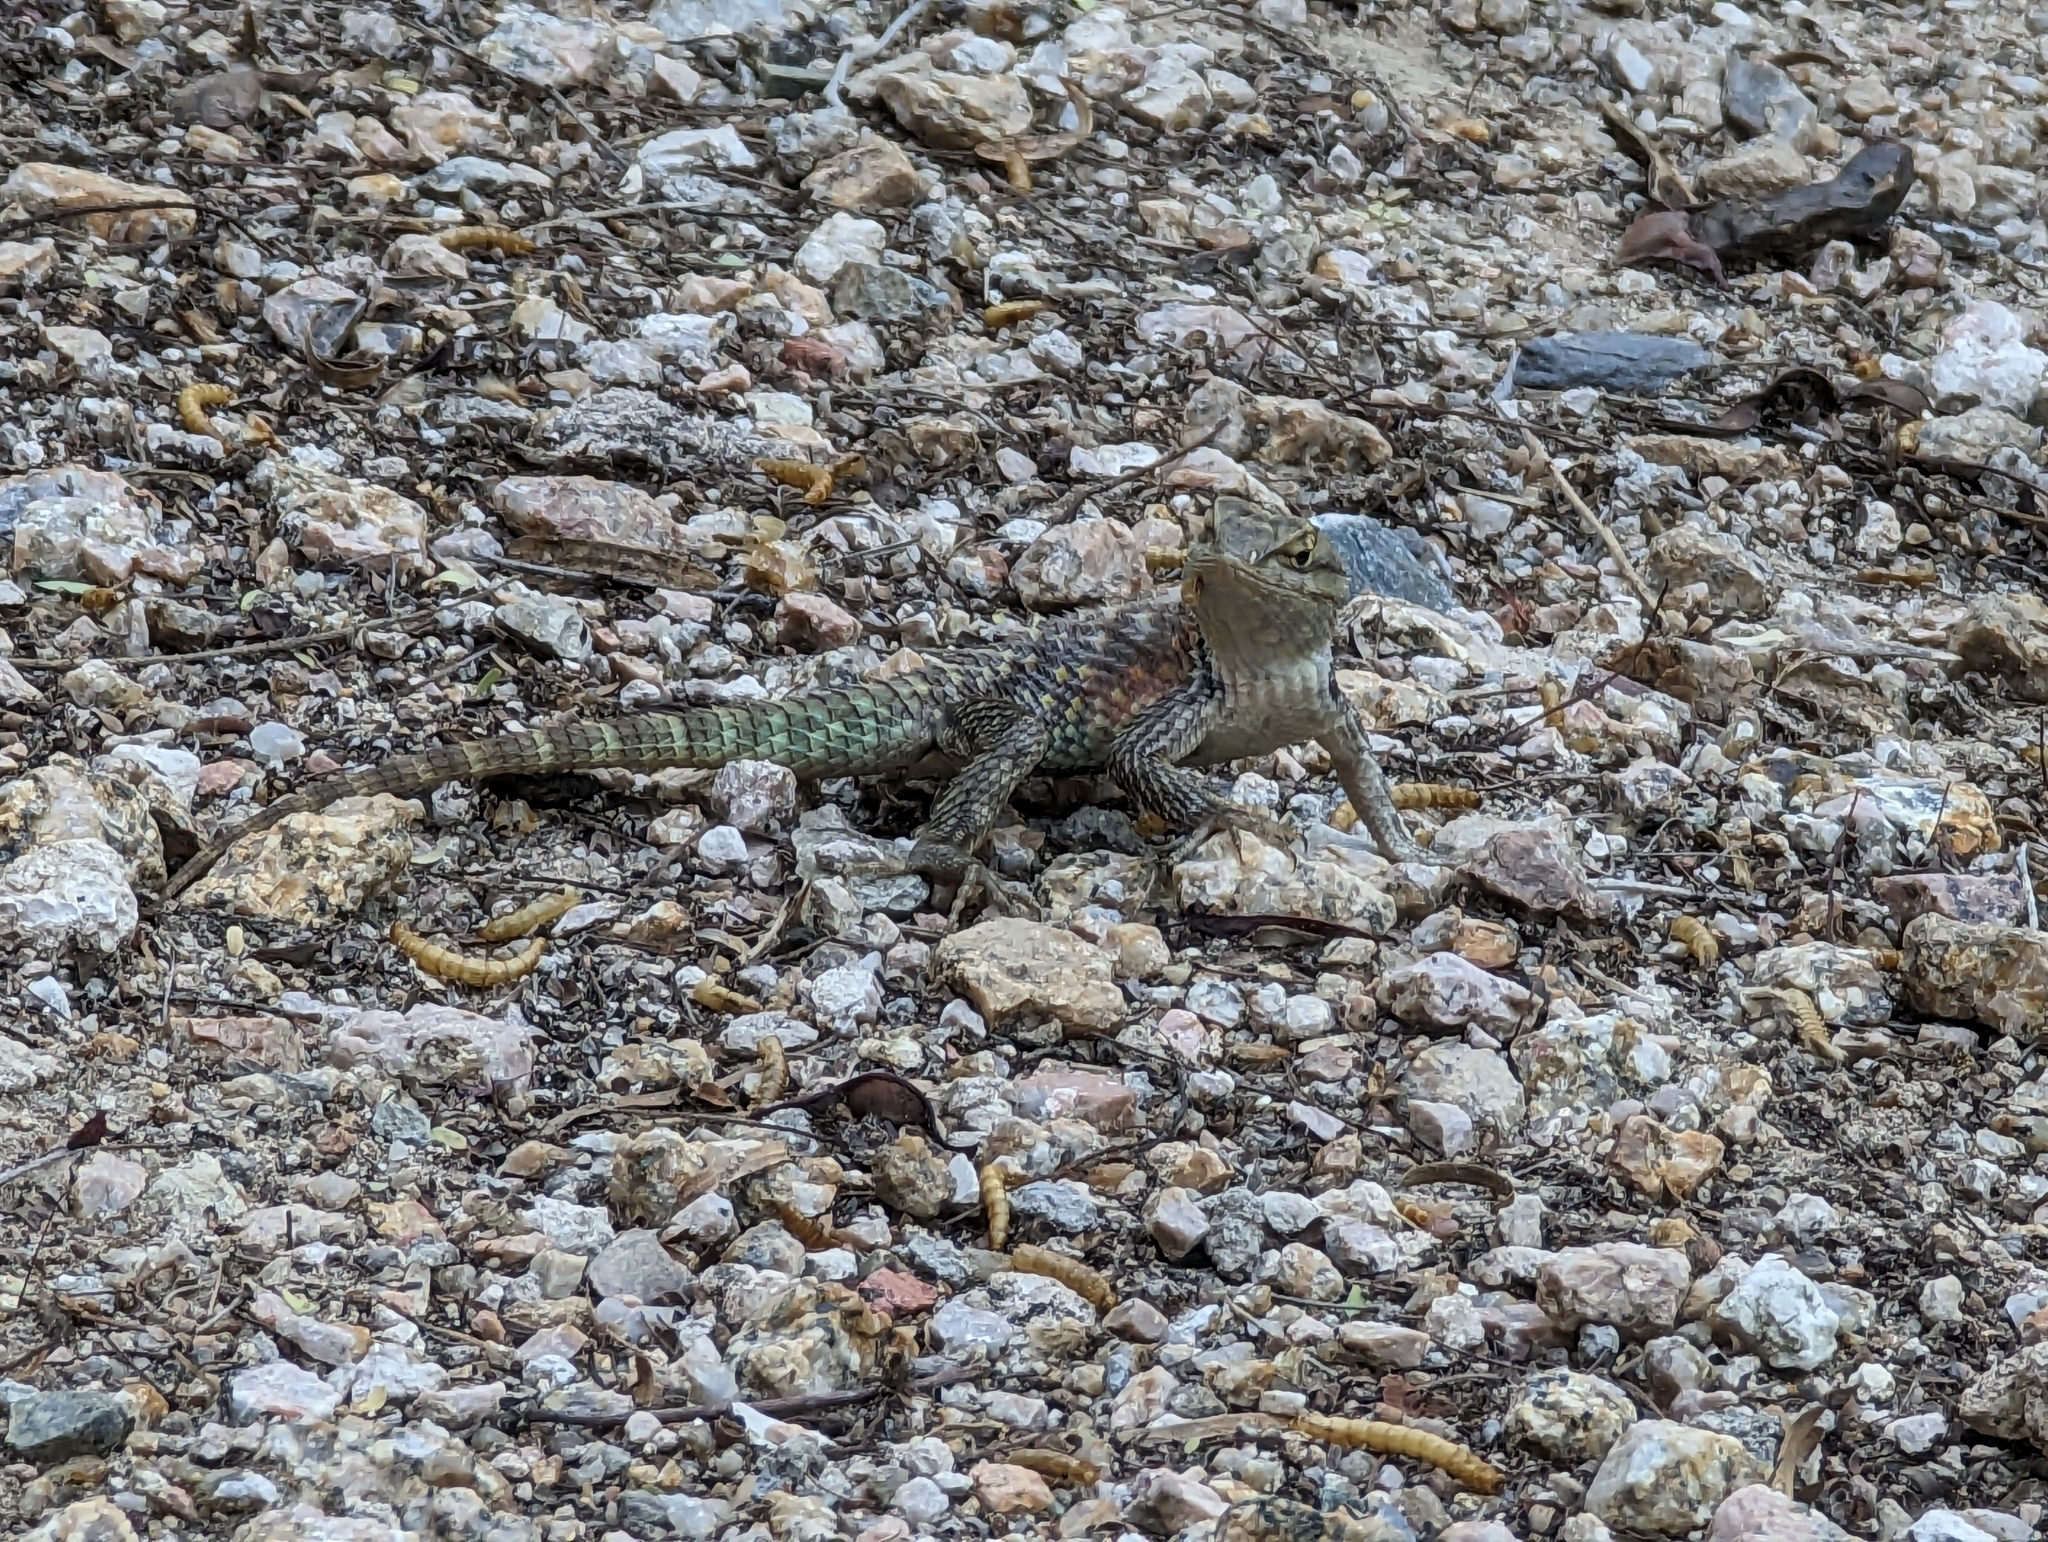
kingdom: Animalia
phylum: Chordata
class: Squamata
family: Phrynosomatidae
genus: Sceloporus
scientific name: Sceloporus magister
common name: Desert spiny lizard
